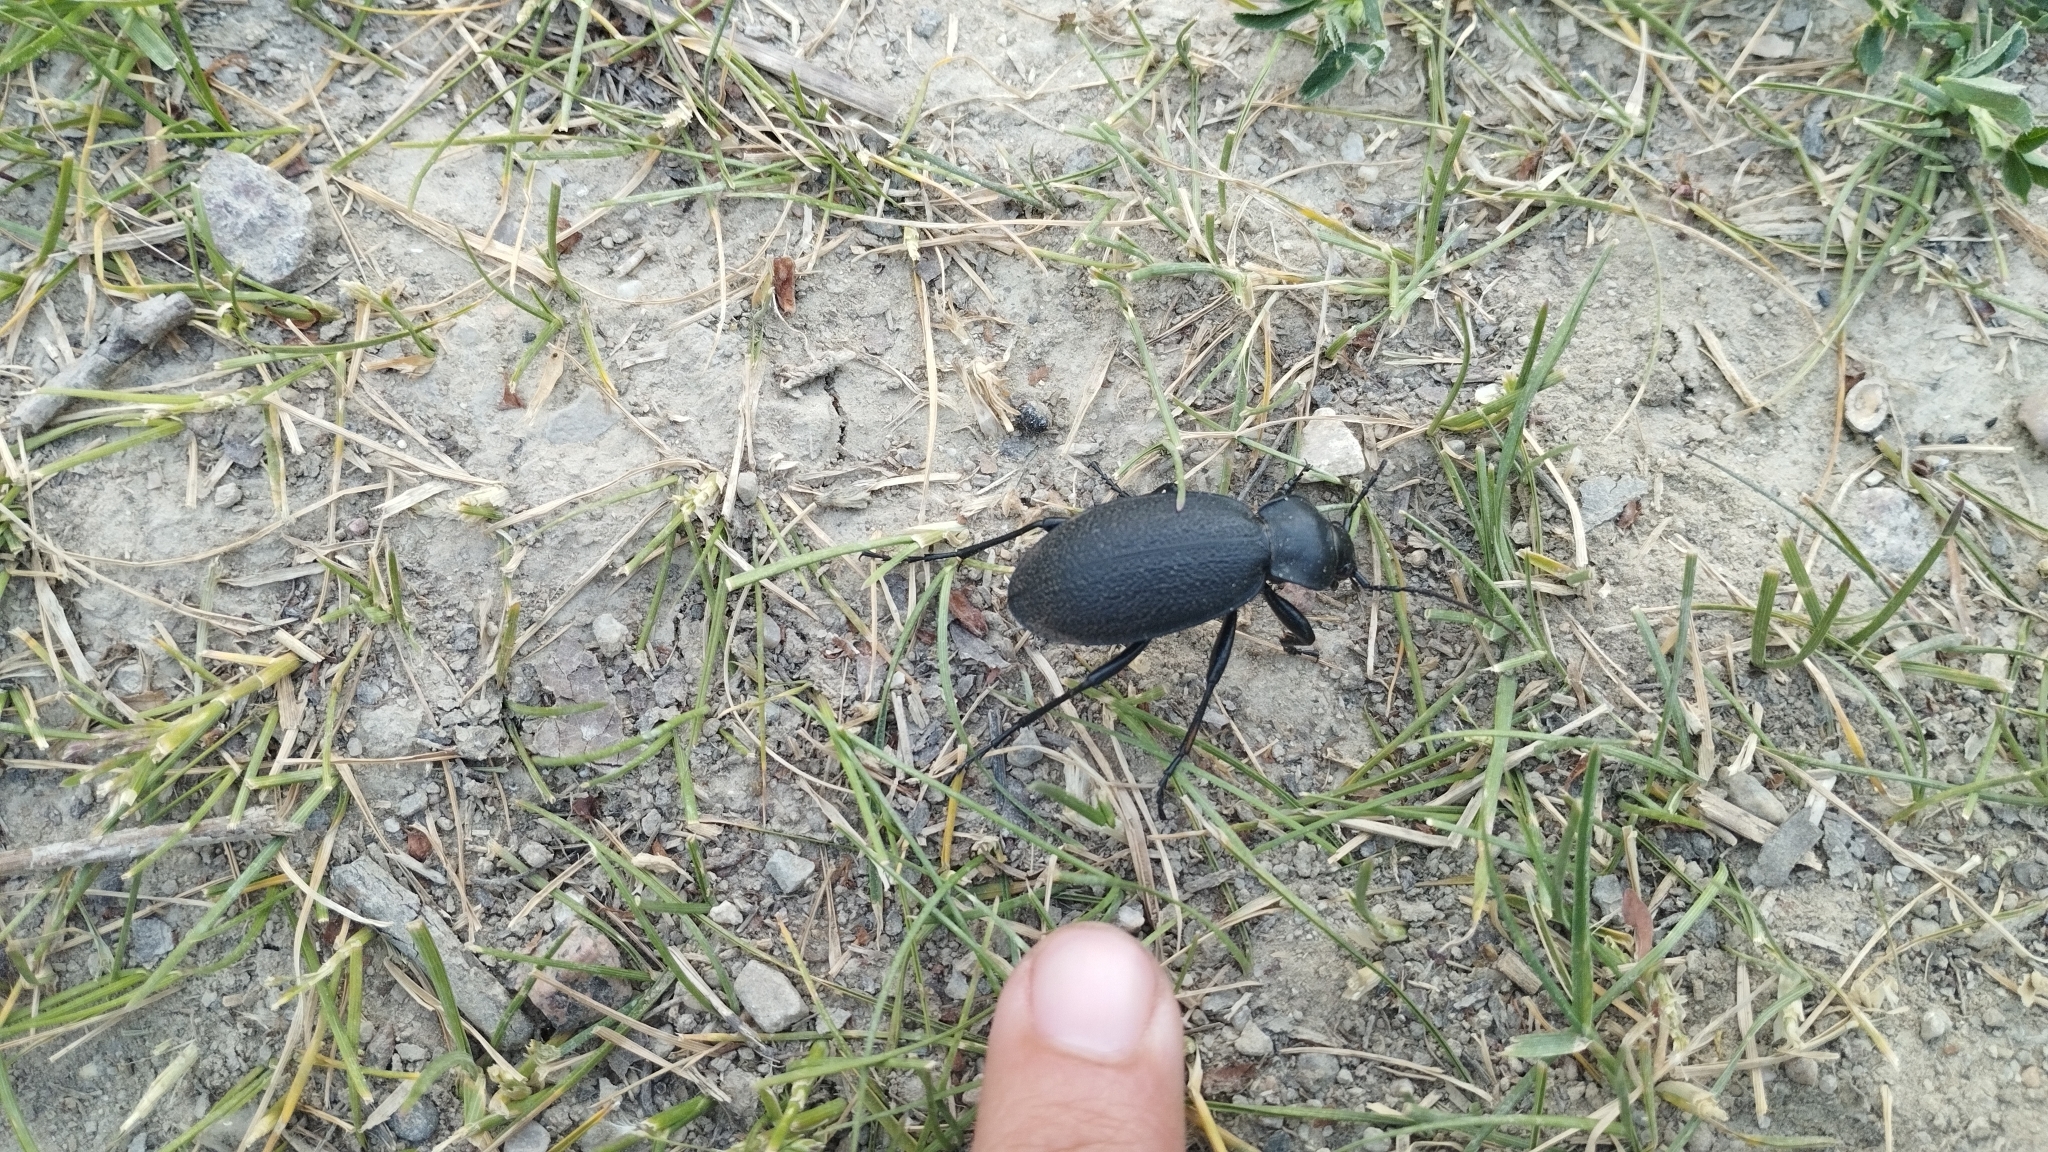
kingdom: Animalia
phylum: Arthropoda
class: Insecta
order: Coleoptera
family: Carabidae
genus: Carabus
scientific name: Carabus coriaceus
